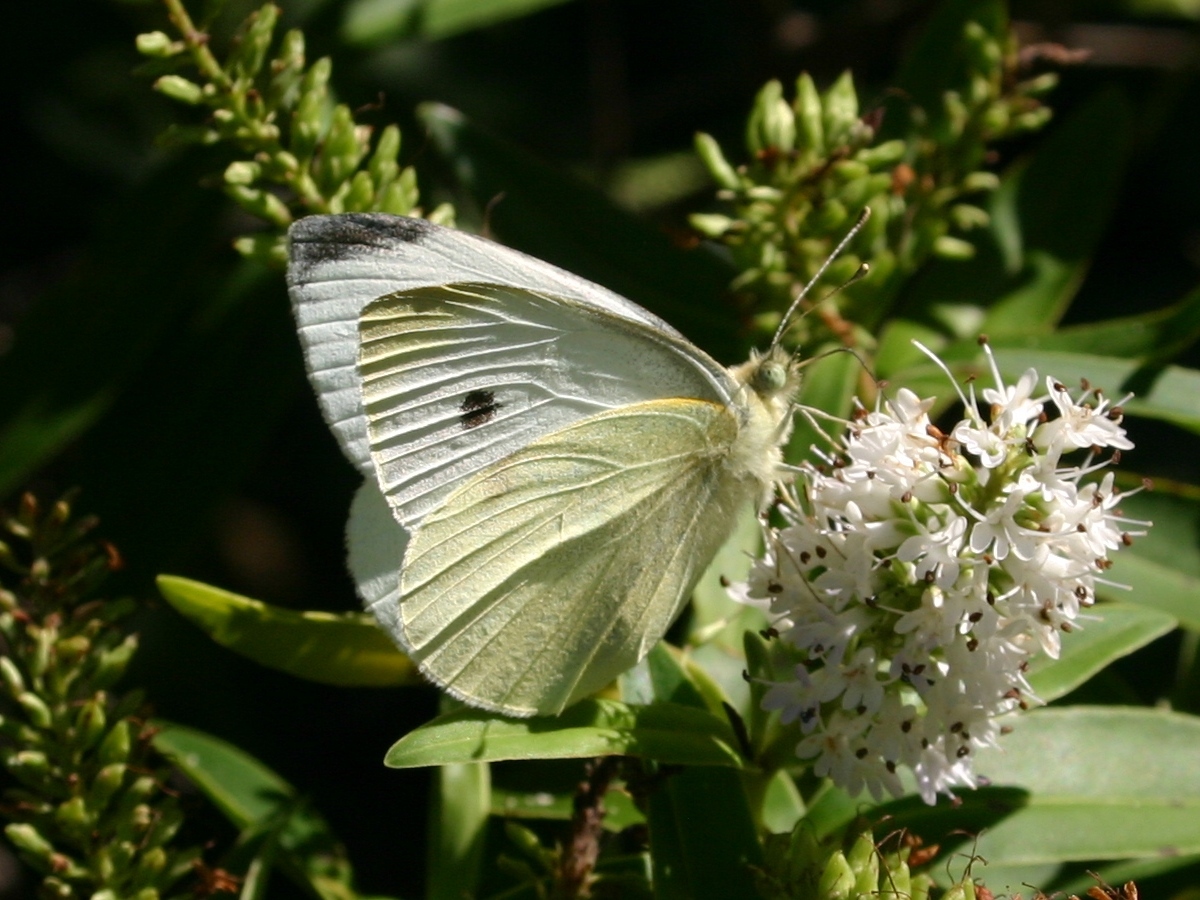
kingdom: Animalia
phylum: Arthropoda
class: Insecta
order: Lepidoptera
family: Pieridae
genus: Pieris
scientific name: Pieris rapae
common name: Small white
